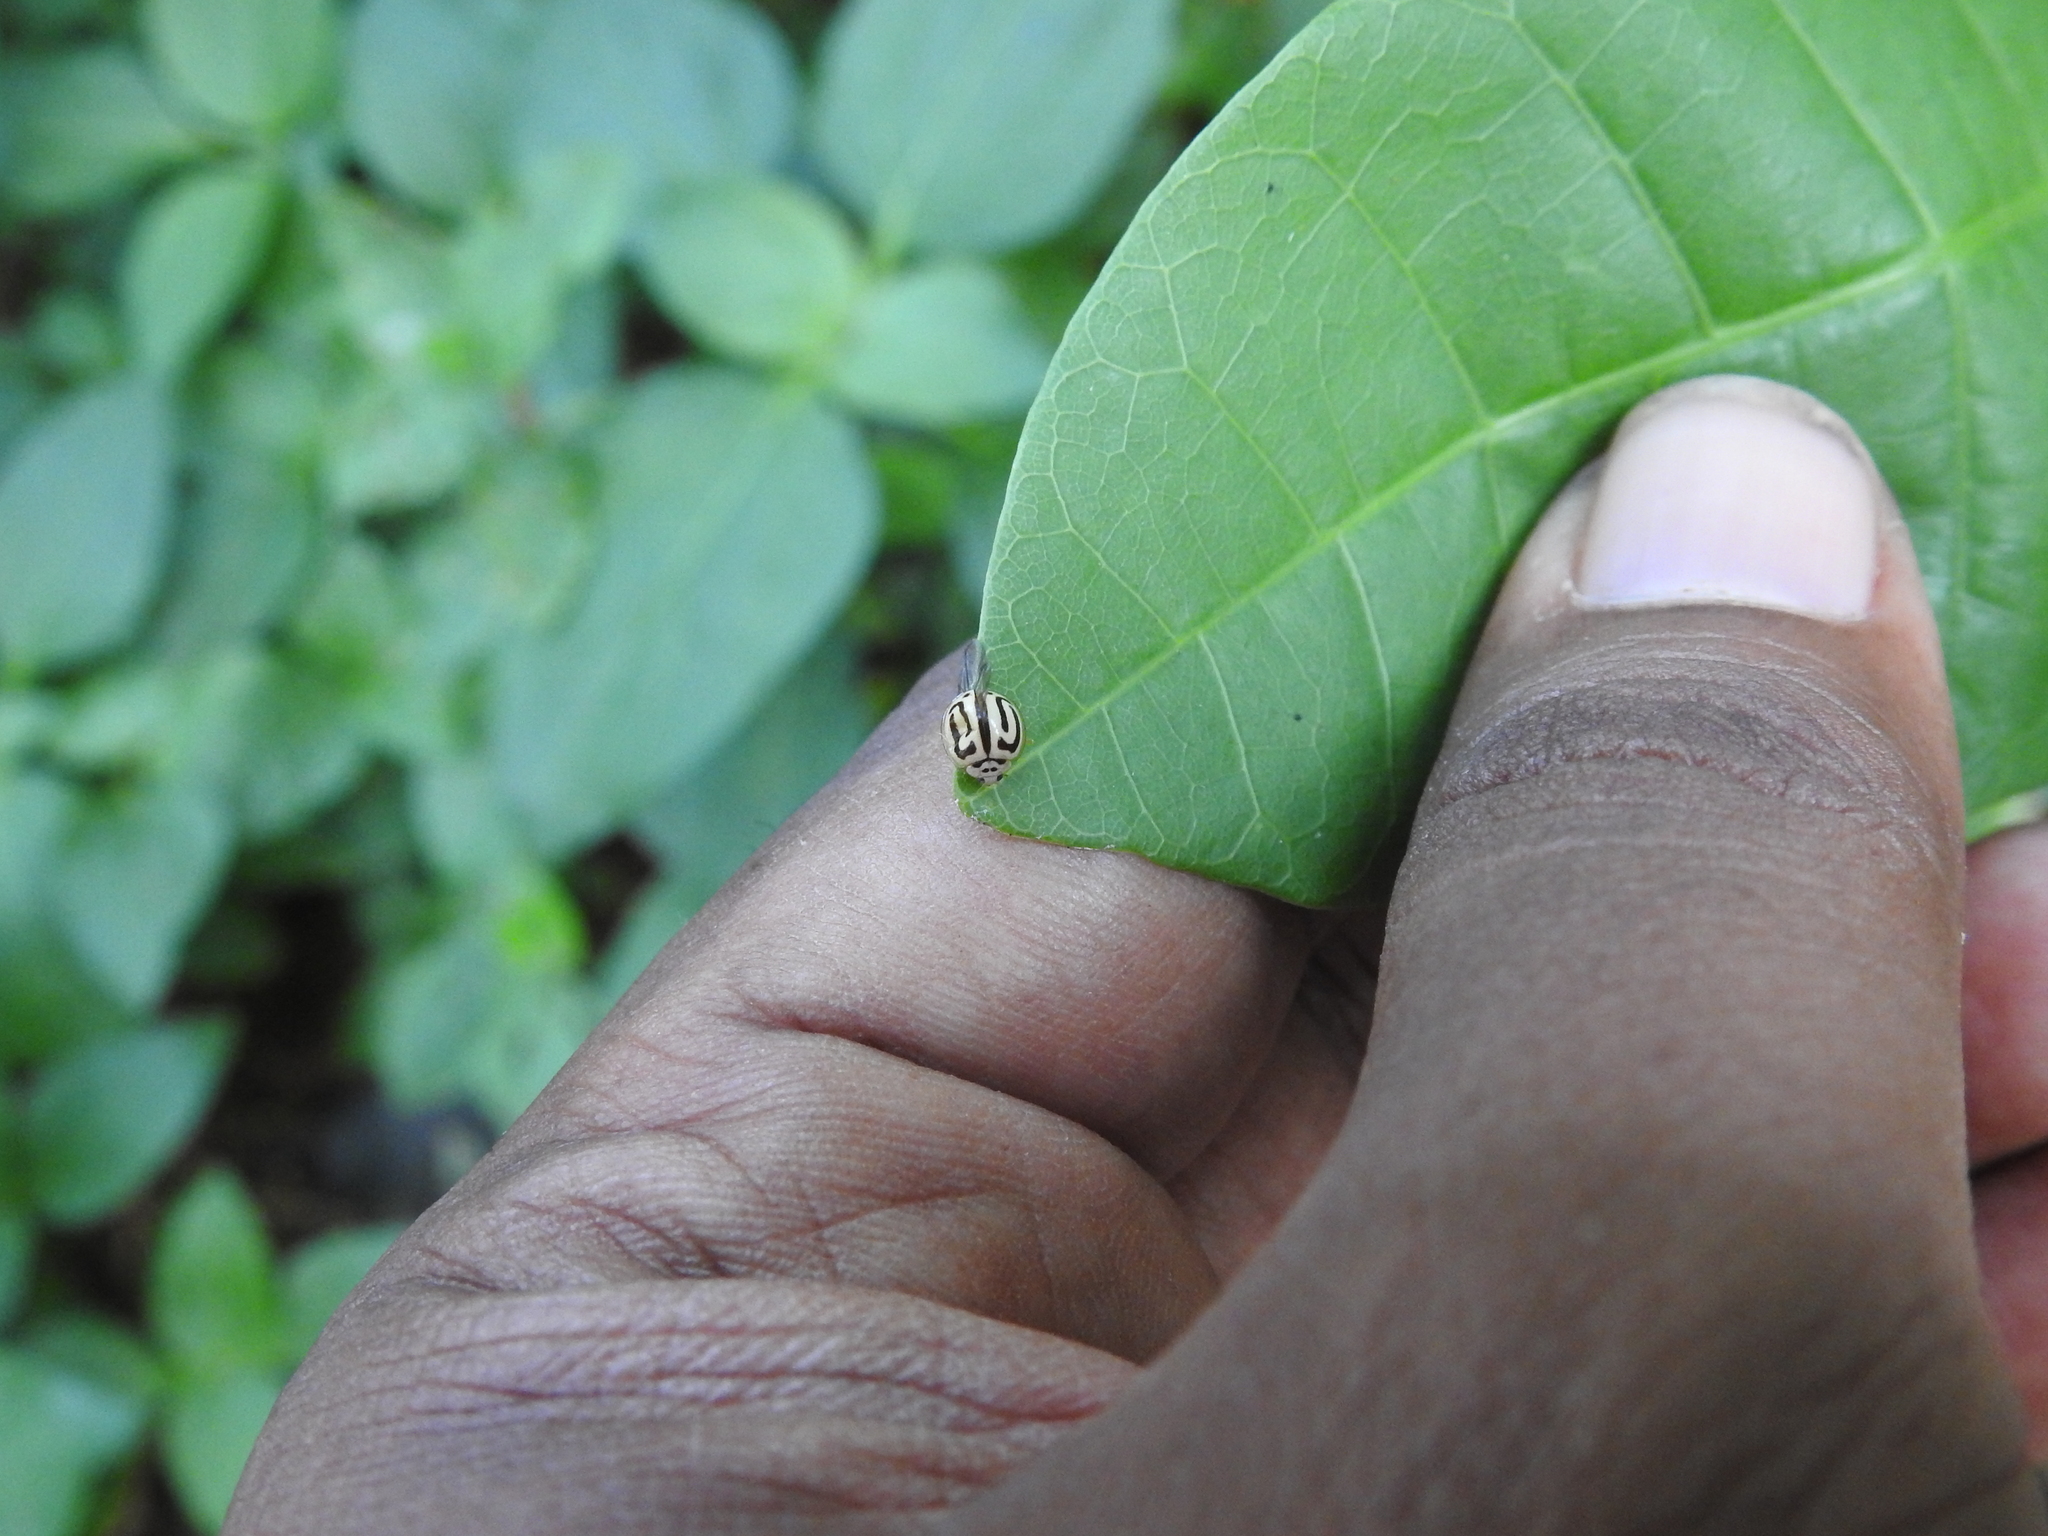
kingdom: Animalia
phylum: Arthropoda
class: Insecta
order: Coleoptera
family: Coccinellidae
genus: Anegleis
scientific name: Anegleis cardoni
